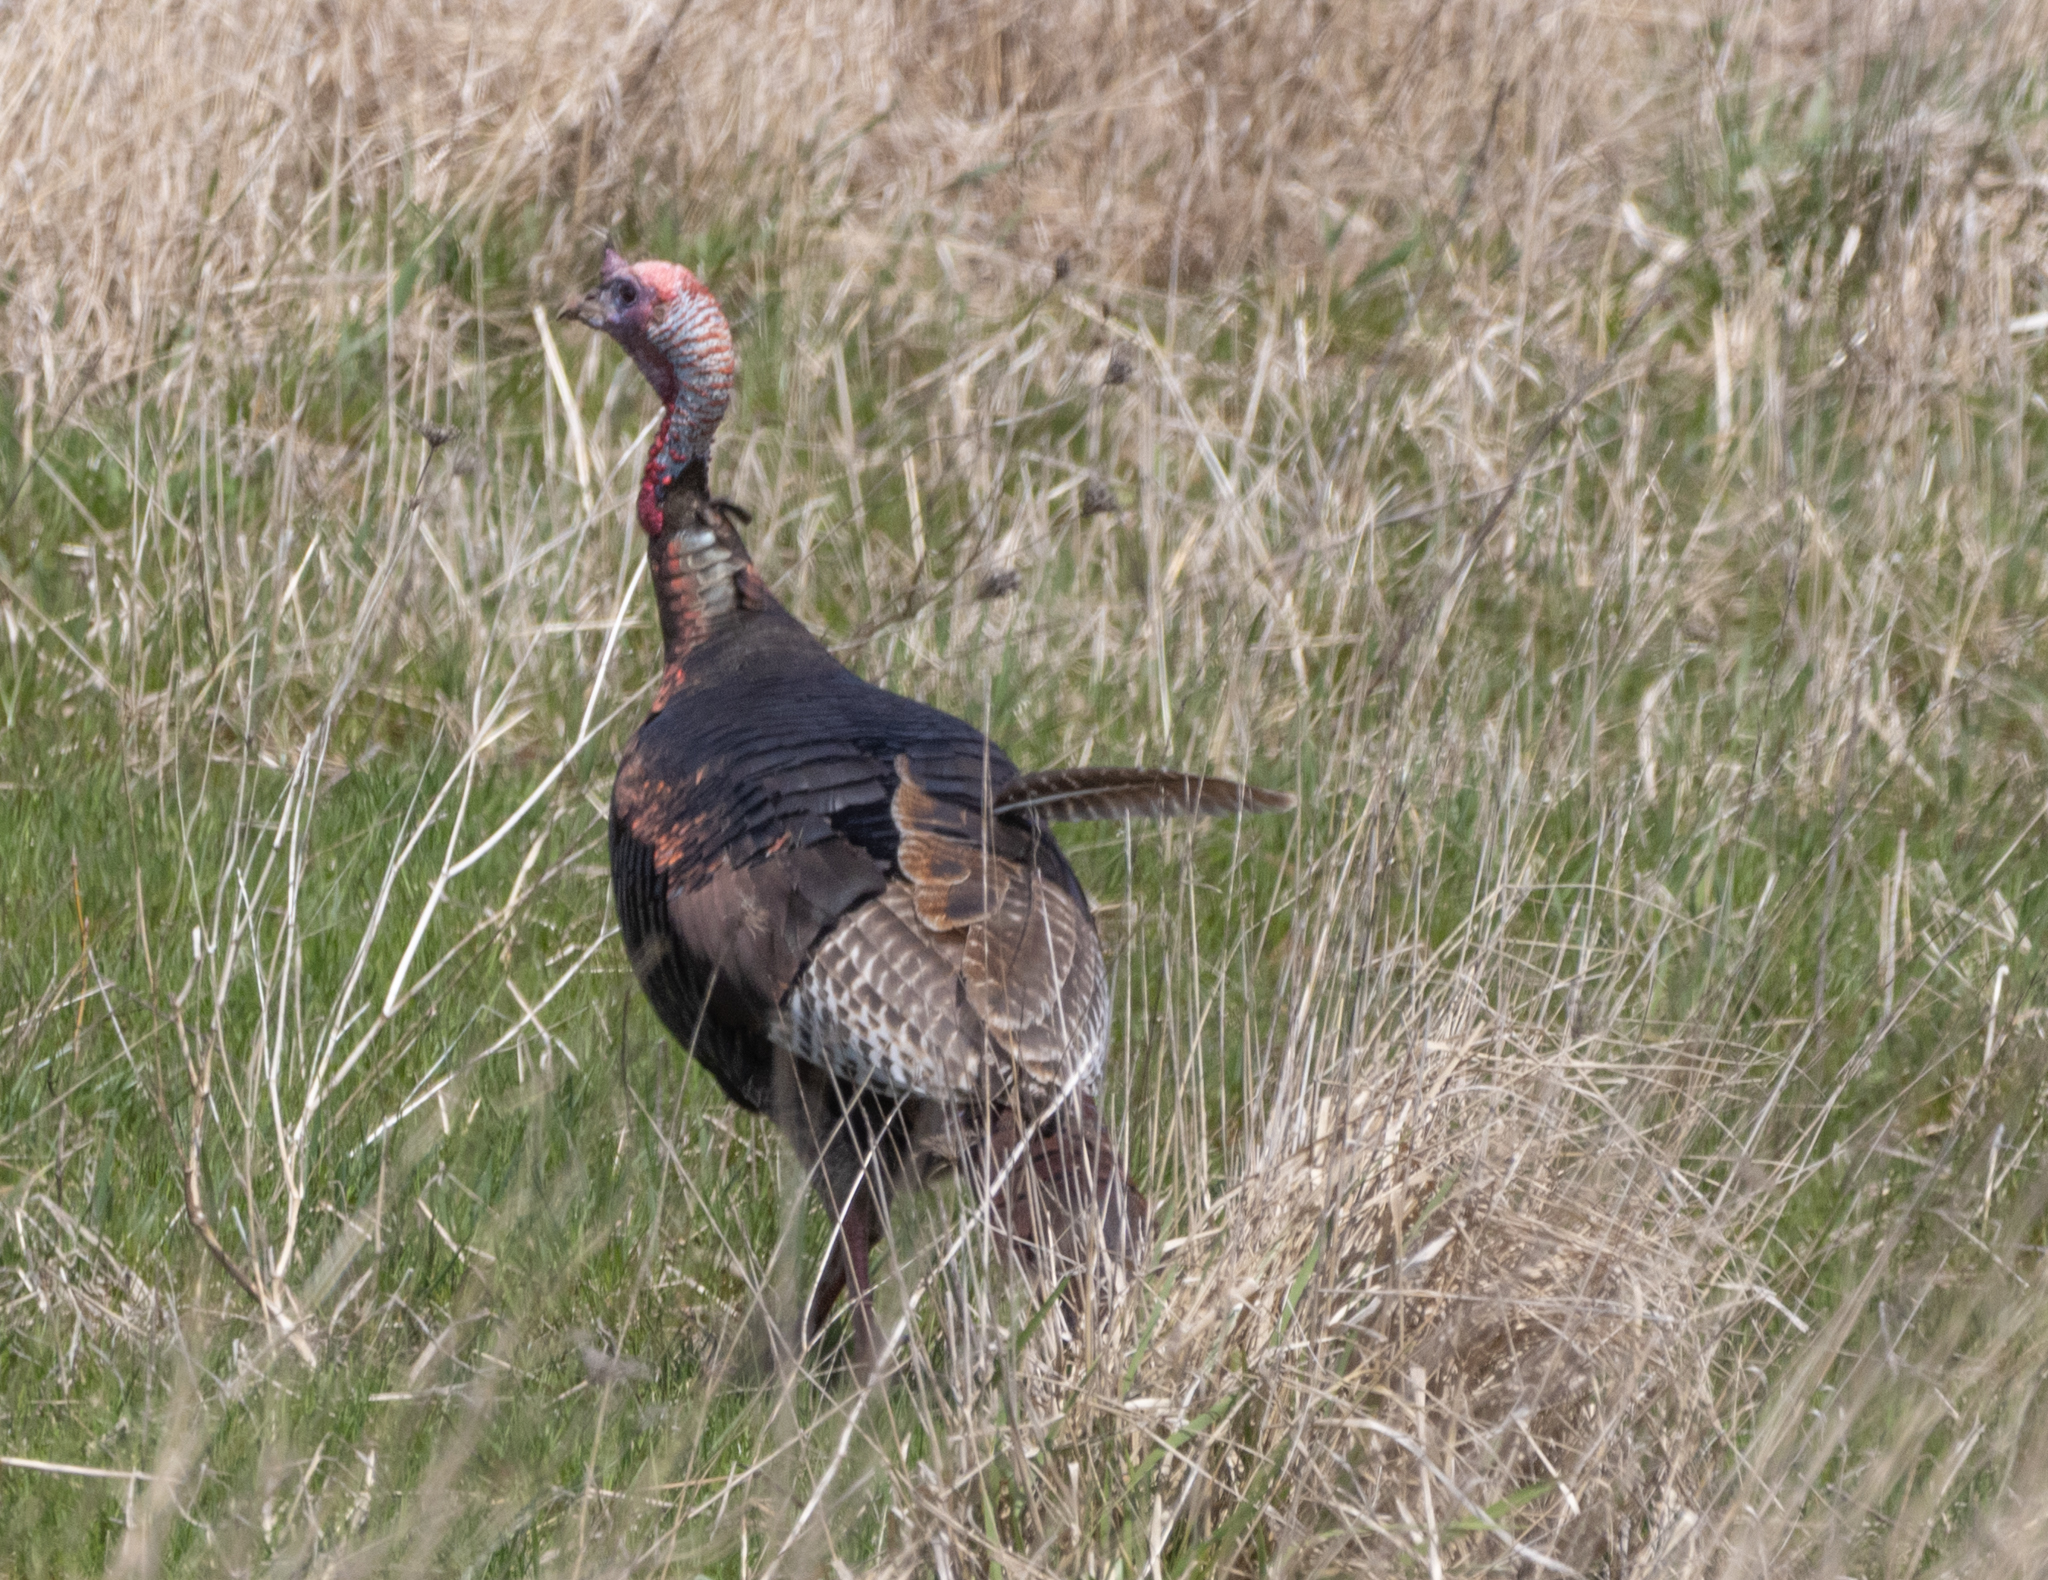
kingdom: Animalia
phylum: Chordata
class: Aves
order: Galliformes
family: Phasianidae
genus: Meleagris
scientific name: Meleagris gallopavo
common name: Wild turkey
